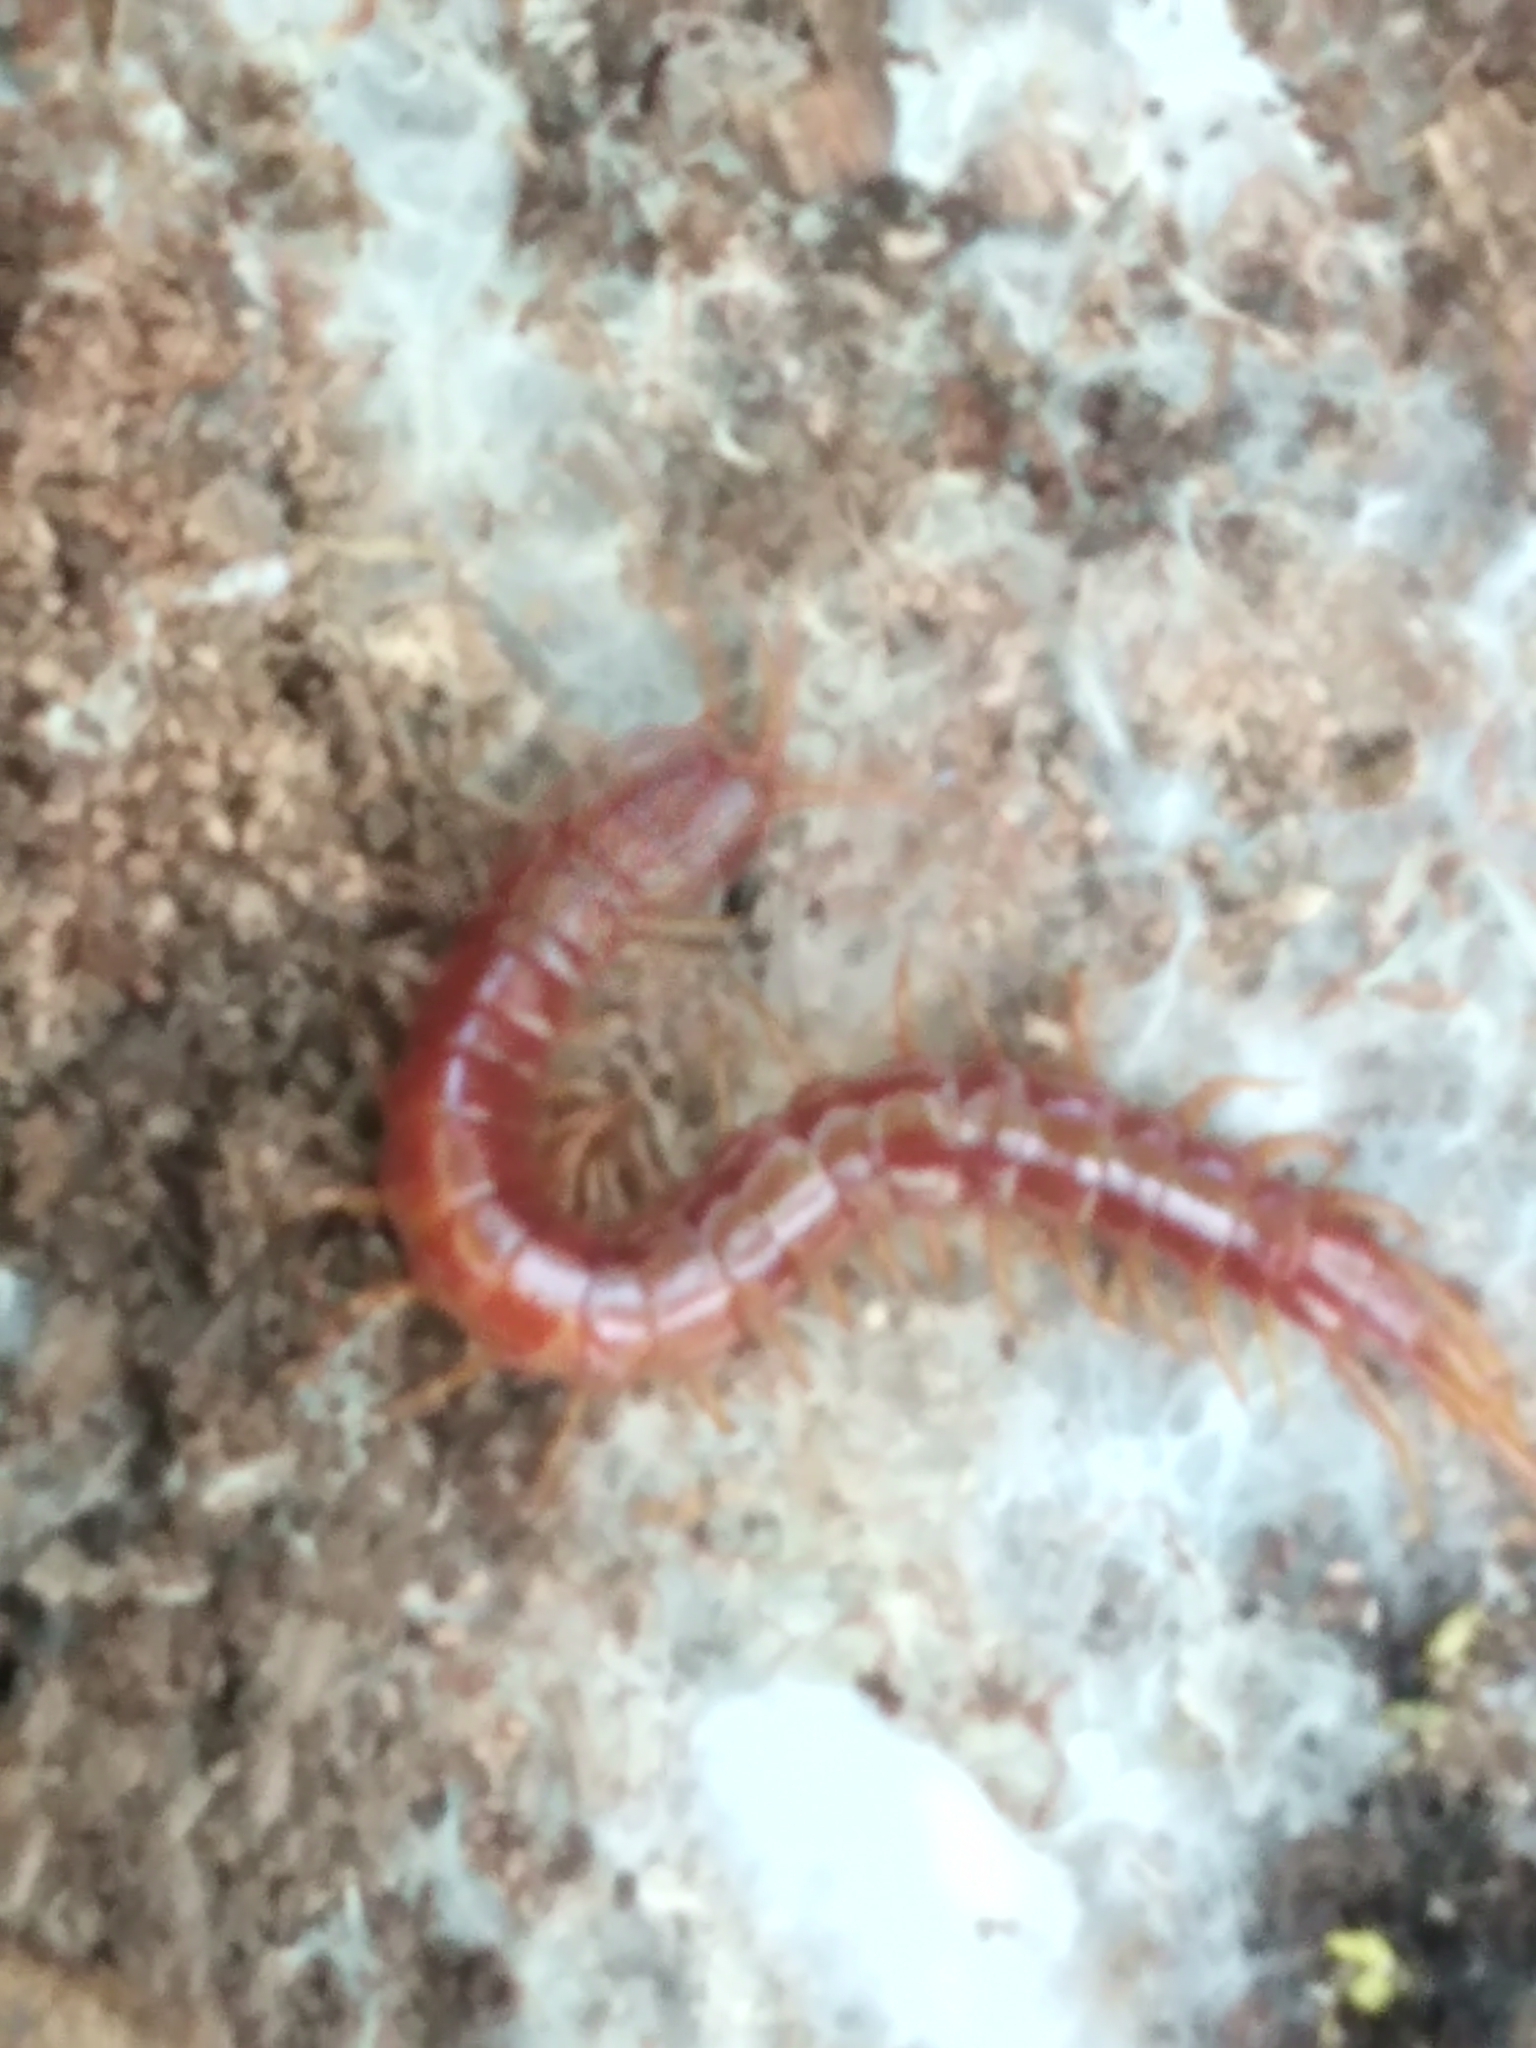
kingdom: Animalia
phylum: Arthropoda
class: Chilopoda
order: Scolopendromorpha
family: Scolopocryptopidae
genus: Scolopocryptops
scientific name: Scolopocryptops sexspinosus
